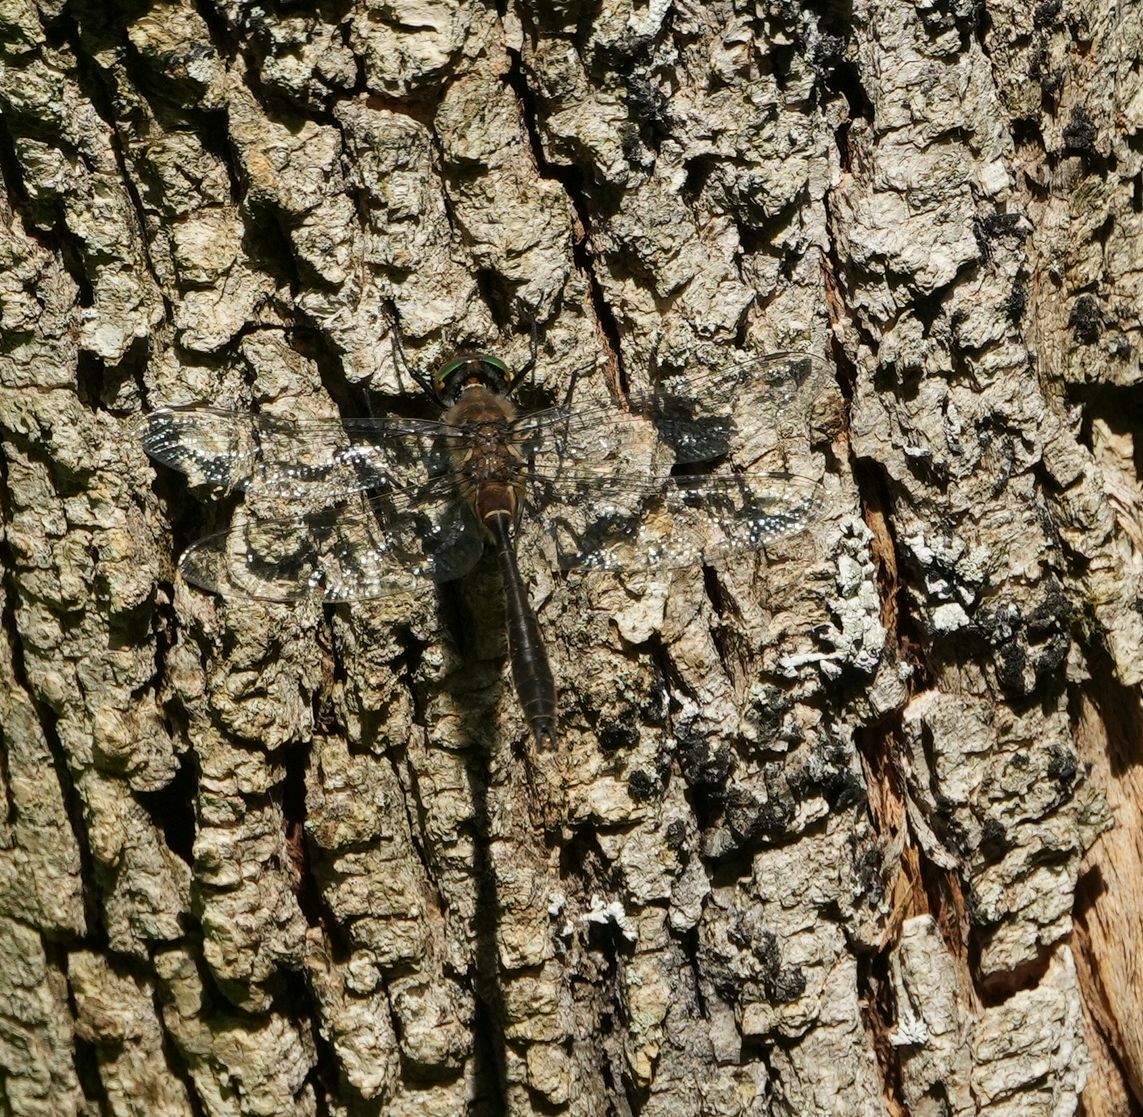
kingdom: Animalia
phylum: Arthropoda
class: Insecta
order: Odonata
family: Corduliidae
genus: Cordulia
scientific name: Cordulia shurtleffii
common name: American emerald
